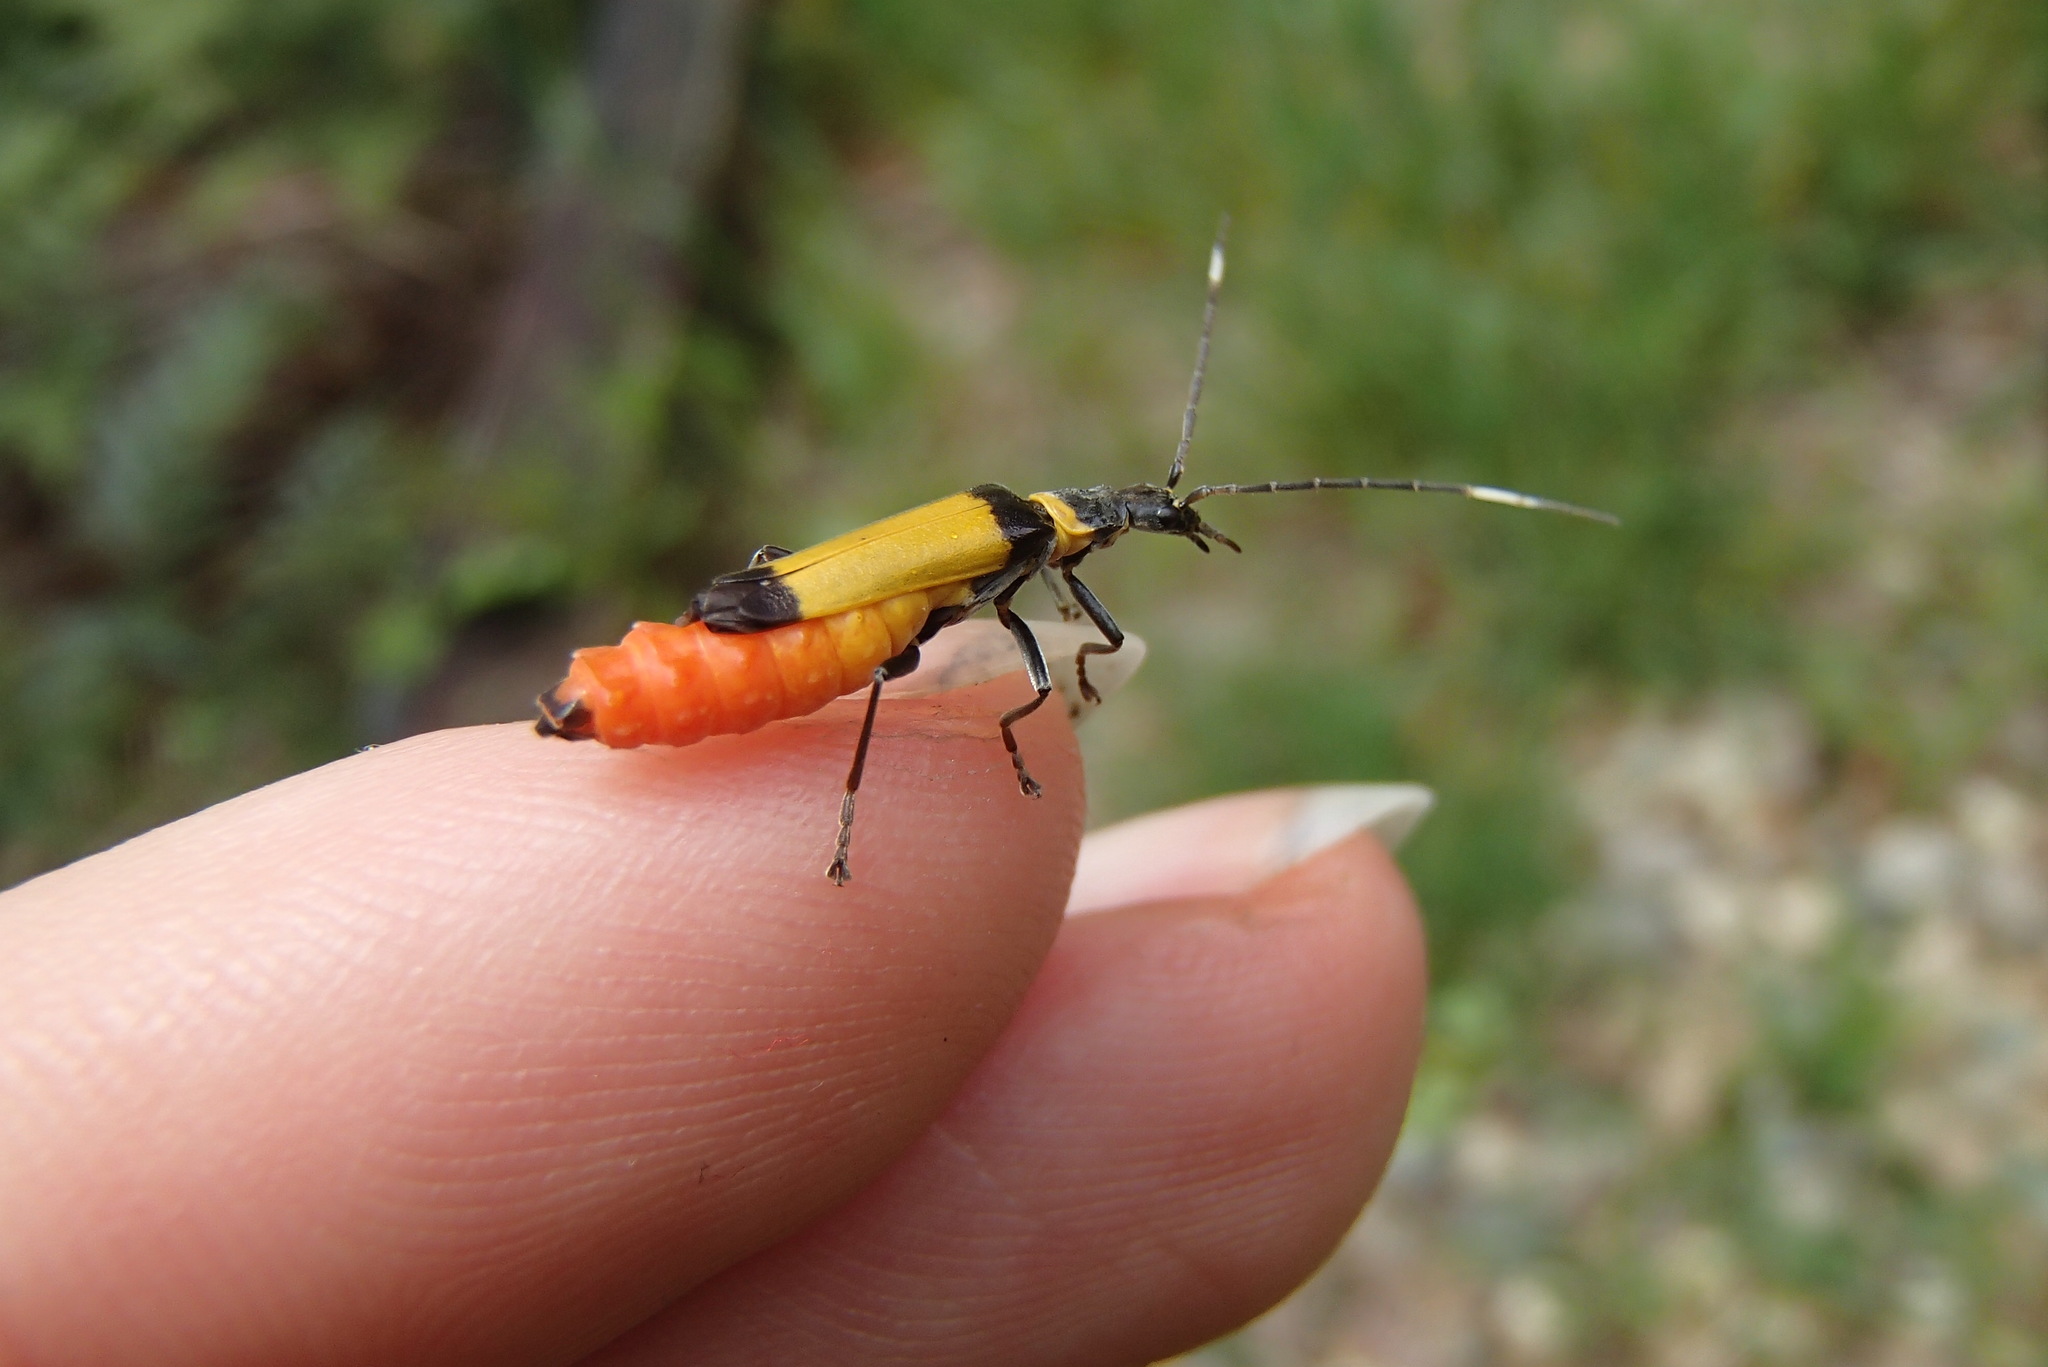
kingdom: Animalia
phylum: Arthropoda
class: Insecta
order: Coleoptera
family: Cantharidae
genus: Chauliognathus
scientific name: Chauliognathus
